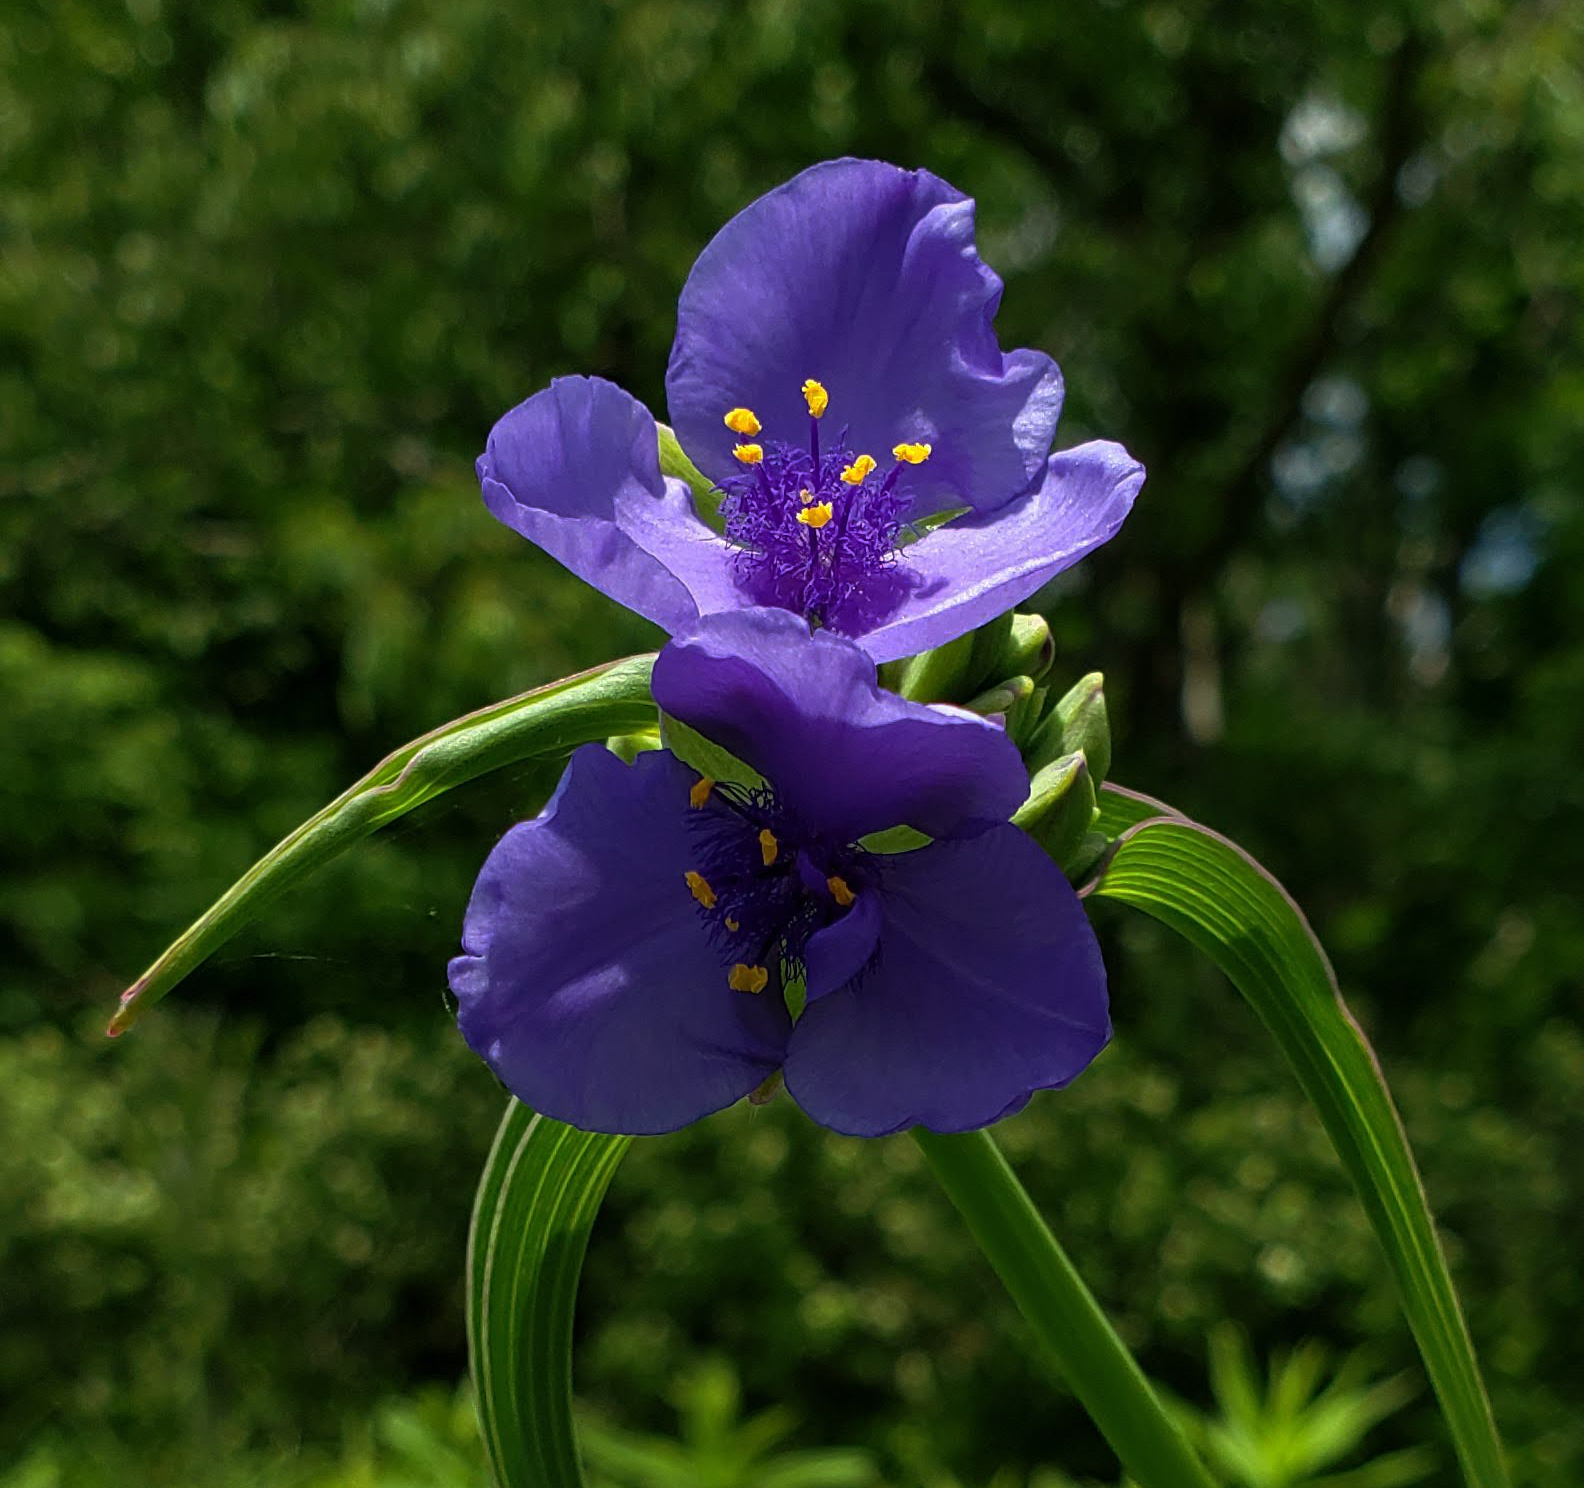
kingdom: Plantae
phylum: Tracheophyta
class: Liliopsida
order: Commelinales
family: Commelinaceae
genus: Tradescantia
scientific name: Tradescantia ohiensis
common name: Ohio spiderwort
